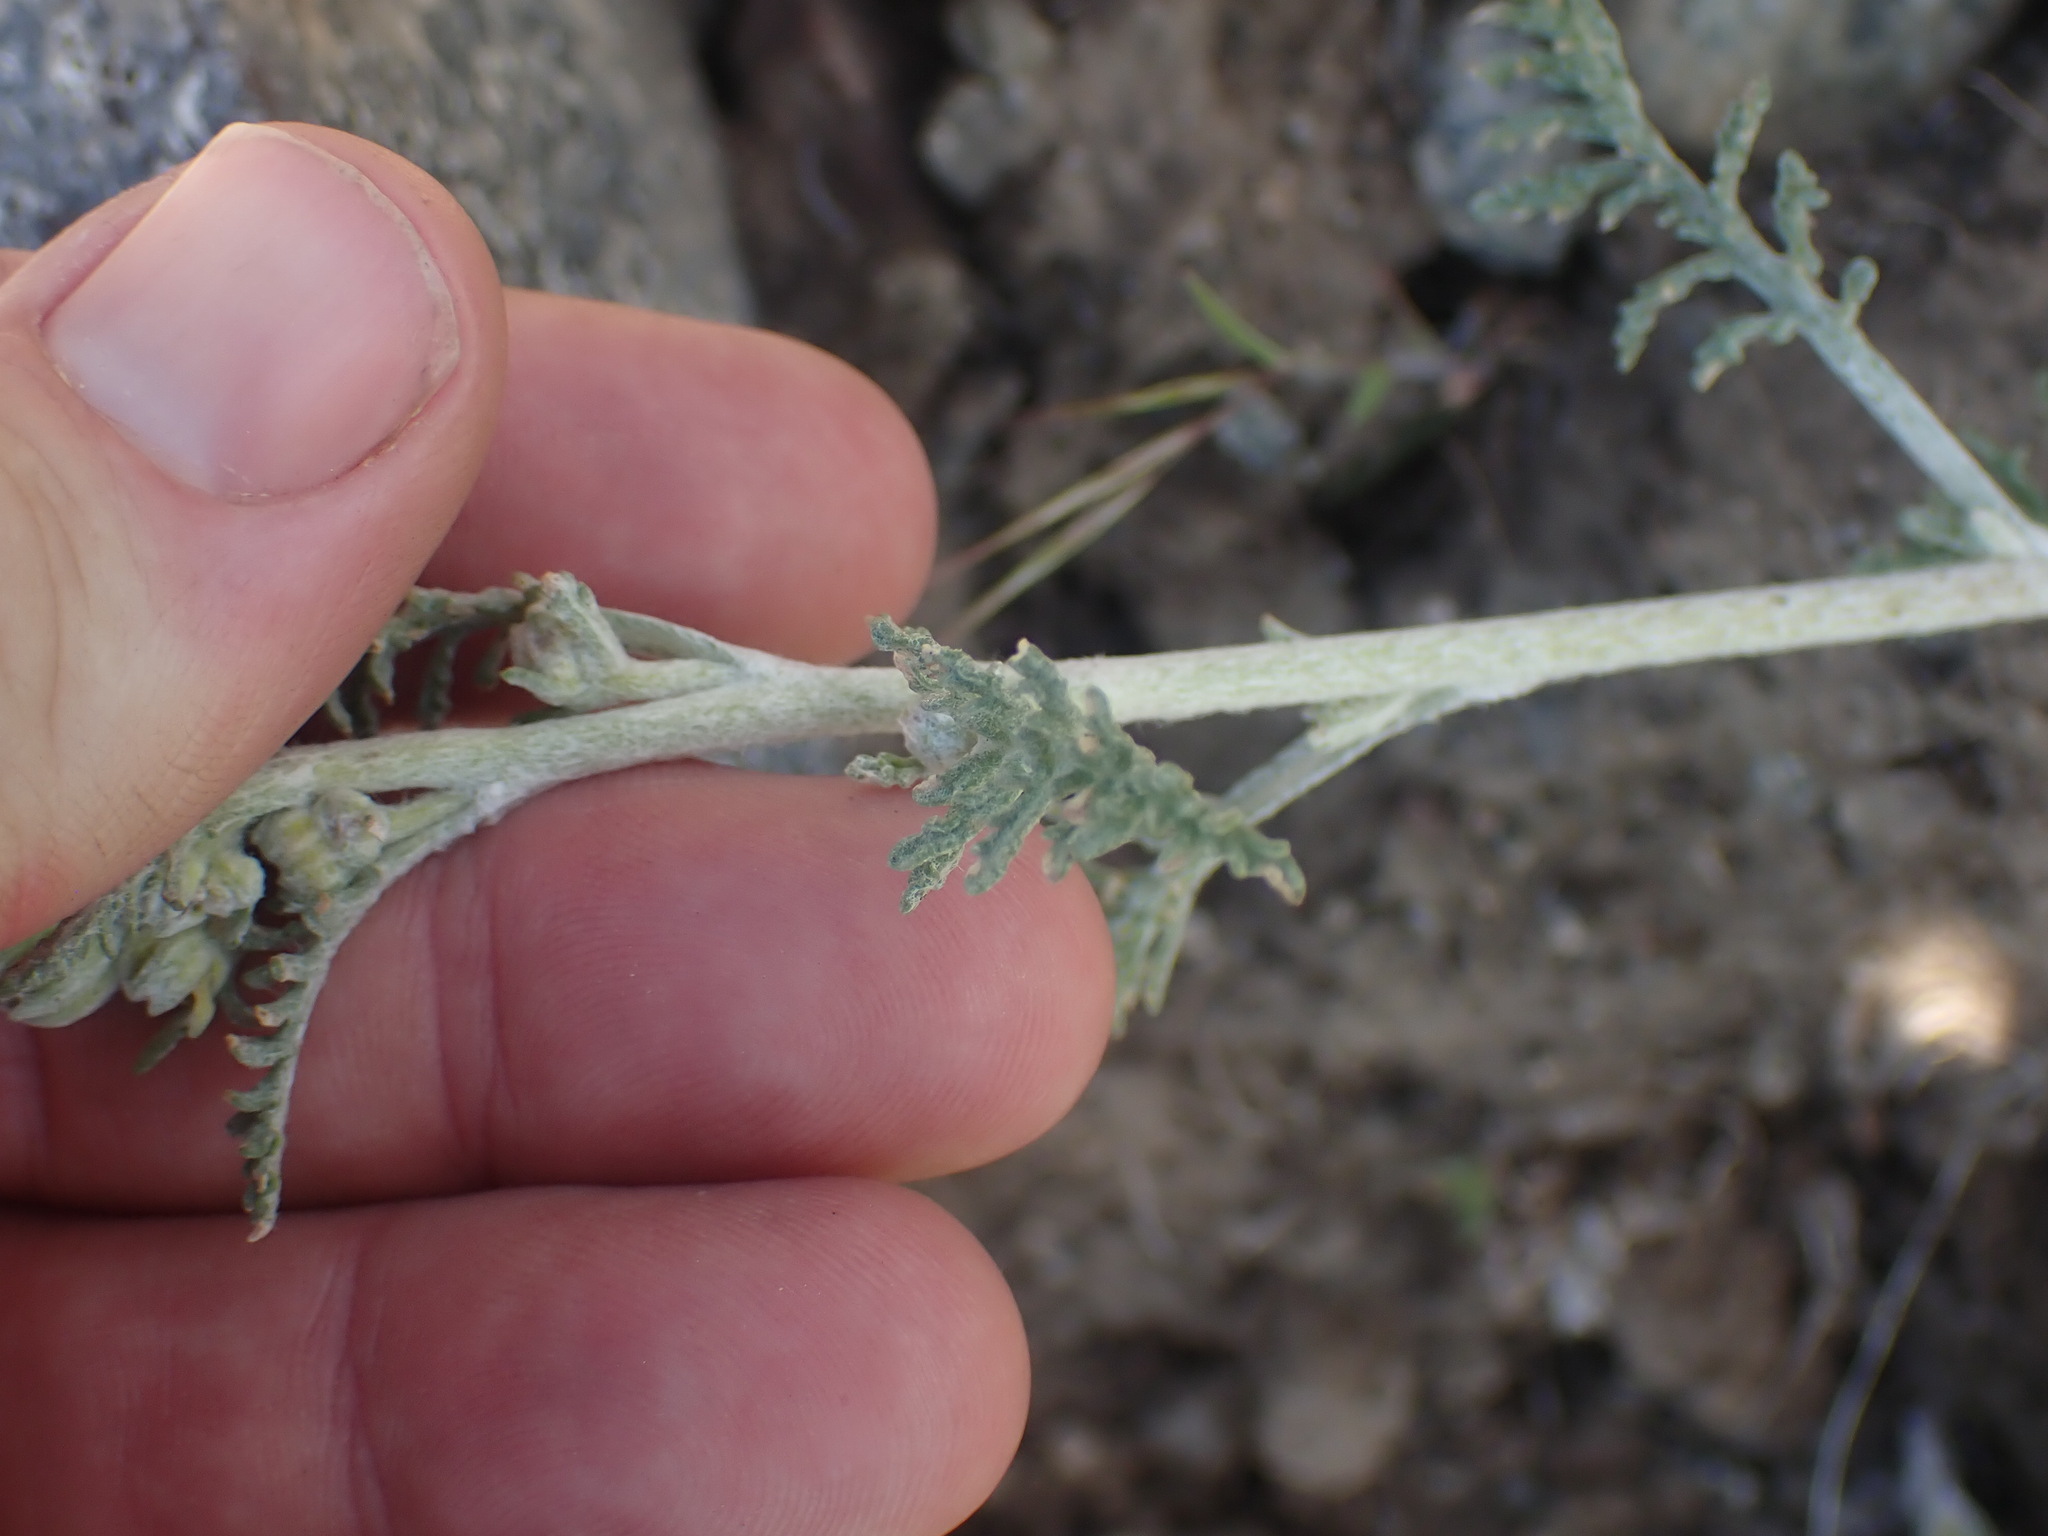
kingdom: Plantae
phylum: Tracheophyta
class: Magnoliopsida
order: Asterales
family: Asteraceae
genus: Chaenactis
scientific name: Chaenactis douglasii
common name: Hoary pincushion
